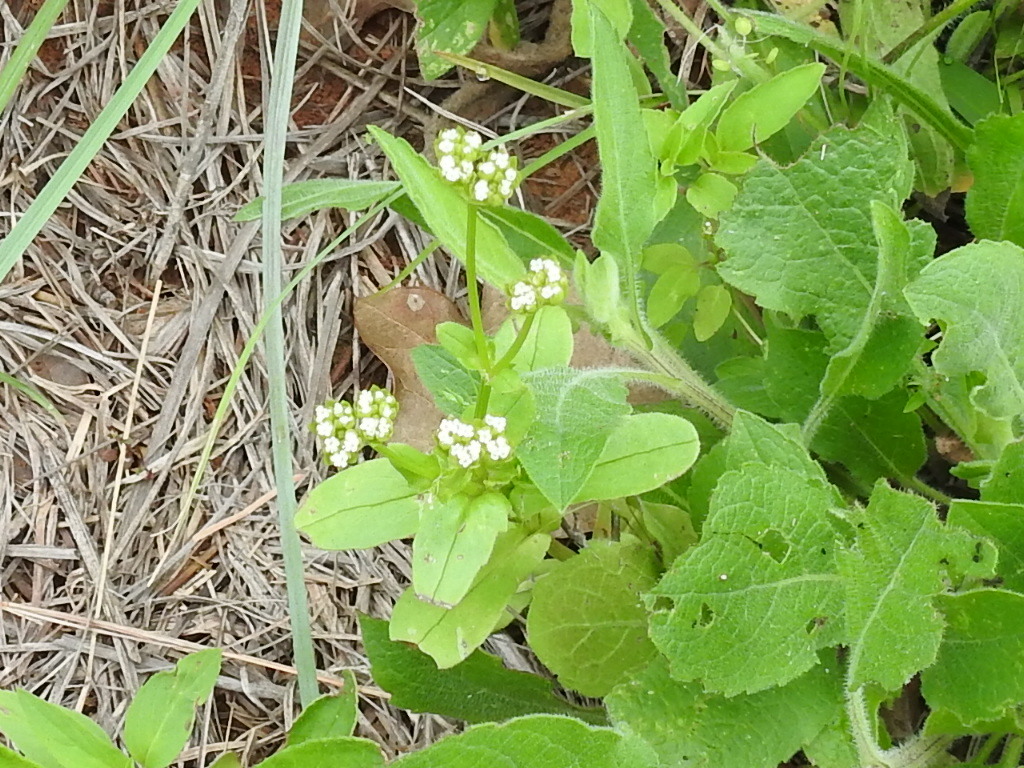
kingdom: Plantae
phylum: Tracheophyta
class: Magnoliopsida
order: Dipsacales
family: Caprifoliaceae
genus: Valerianella
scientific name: Valerianella radiata
